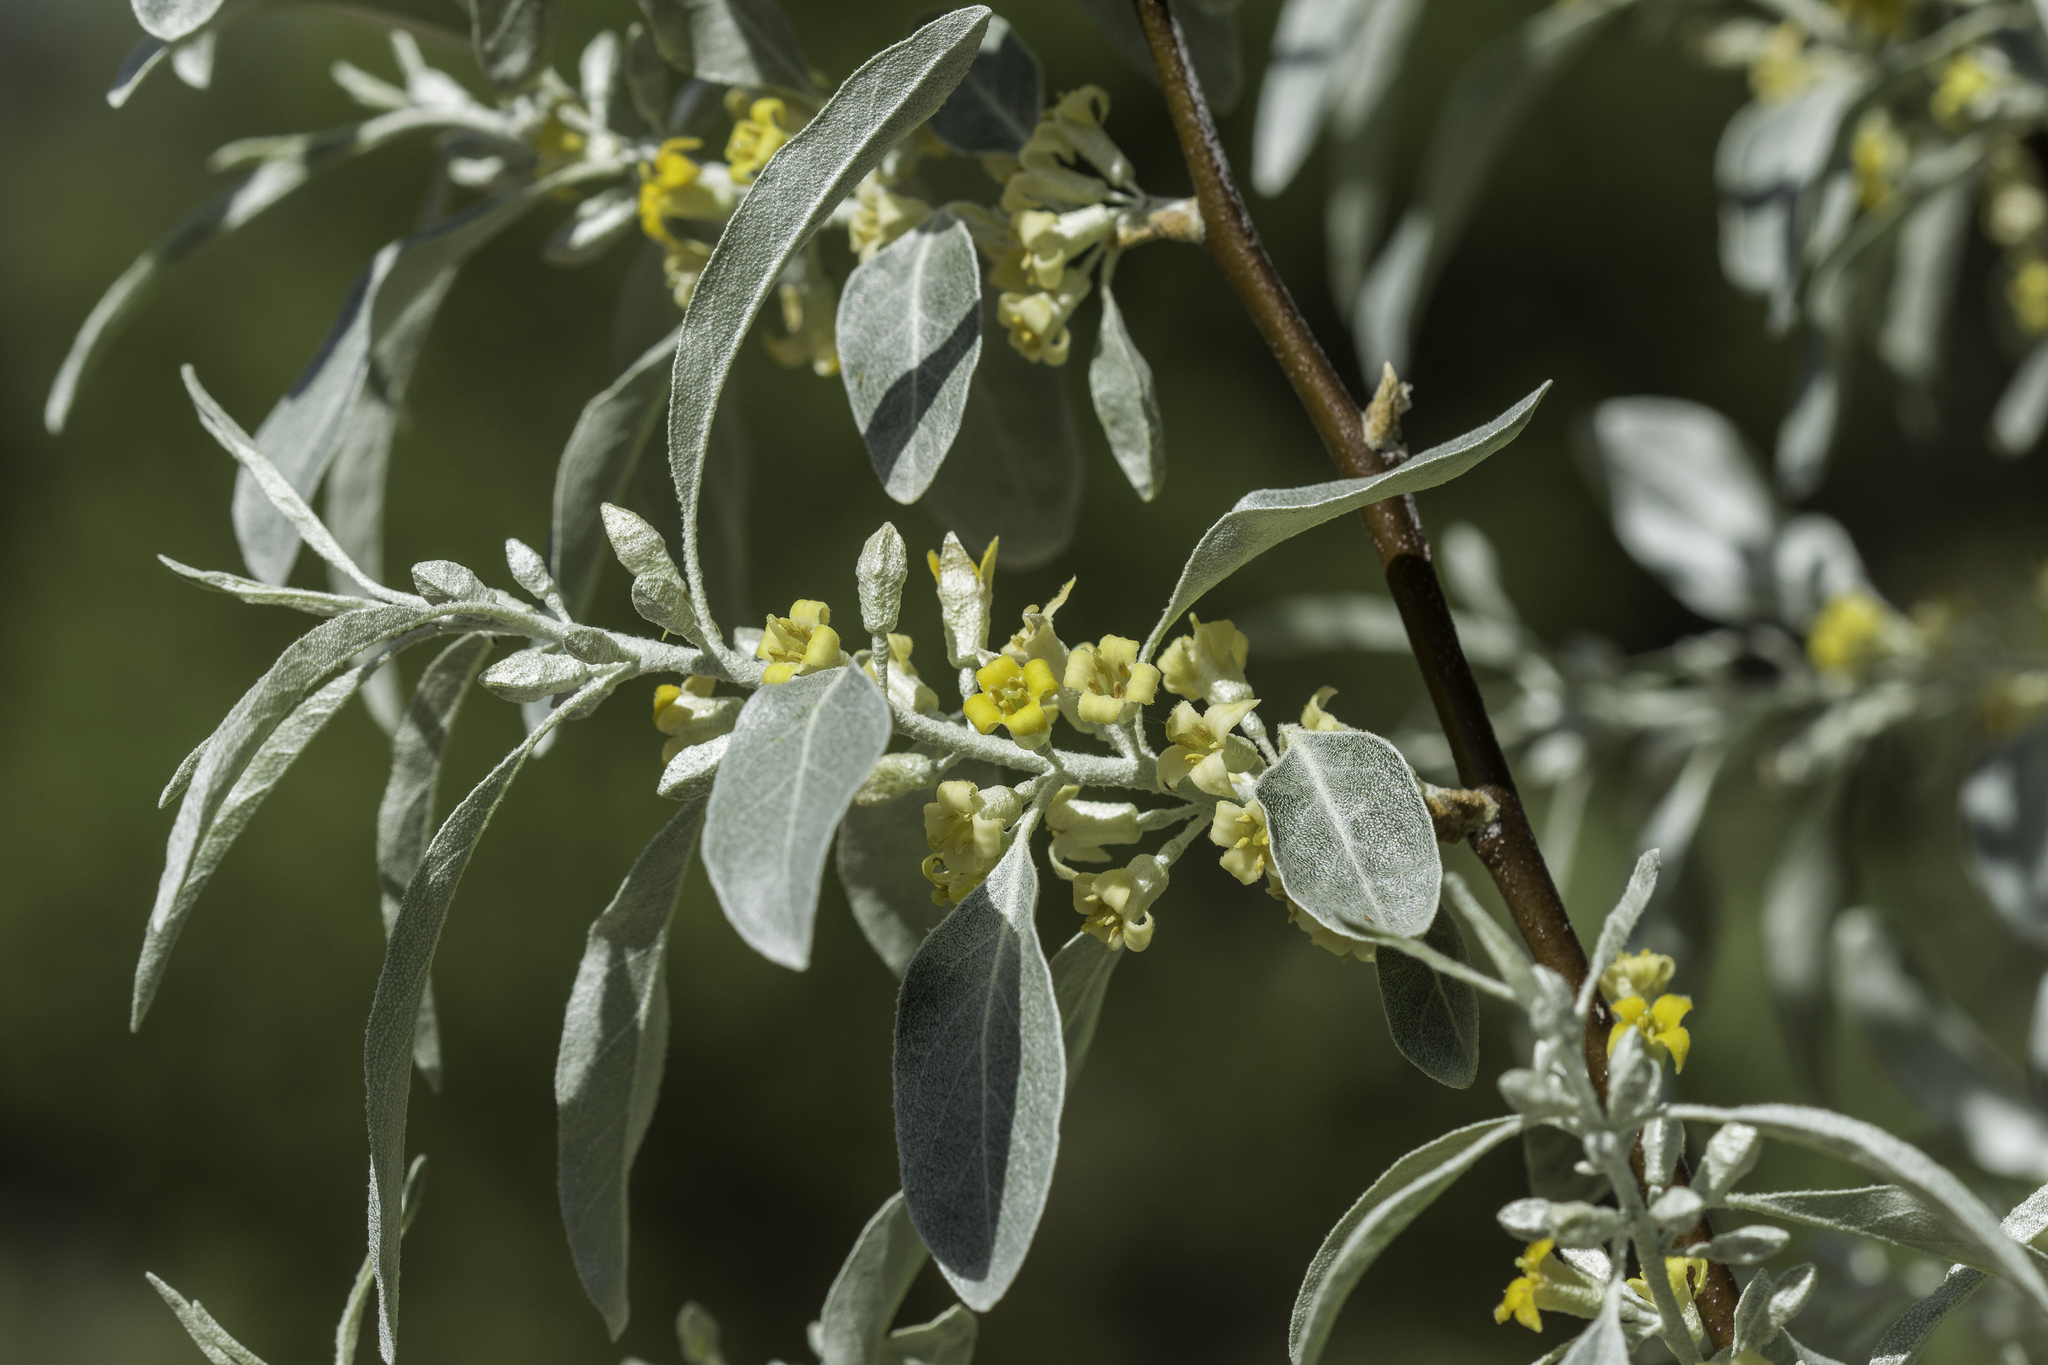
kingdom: Plantae
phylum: Tracheophyta
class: Magnoliopsida
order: Rosales
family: Elaeagnaceae
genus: Elaeagnus
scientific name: Elaeagnus angustifolia
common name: Russian olive
